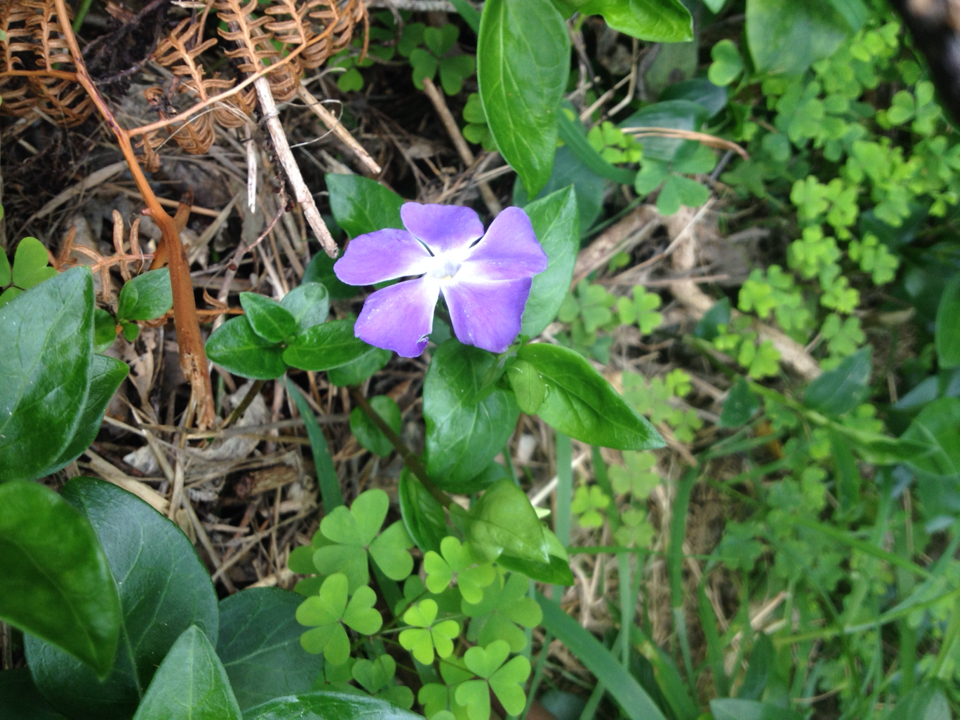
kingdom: Plantae
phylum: Tracheophyta
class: Magnoliopsida
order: Gentianales
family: Apocynaceae
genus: Vinca
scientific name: Vinca major
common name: Greater periwinkle
